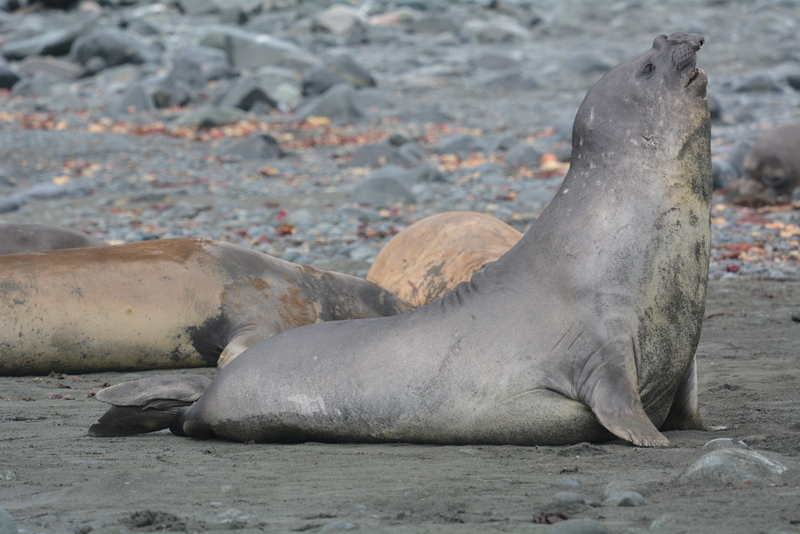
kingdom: Animalia
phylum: Chordata
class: Mammalia
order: Carnivora
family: Phocidae
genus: Mirounga
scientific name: Mirounga leonina
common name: Southern elephant seal
